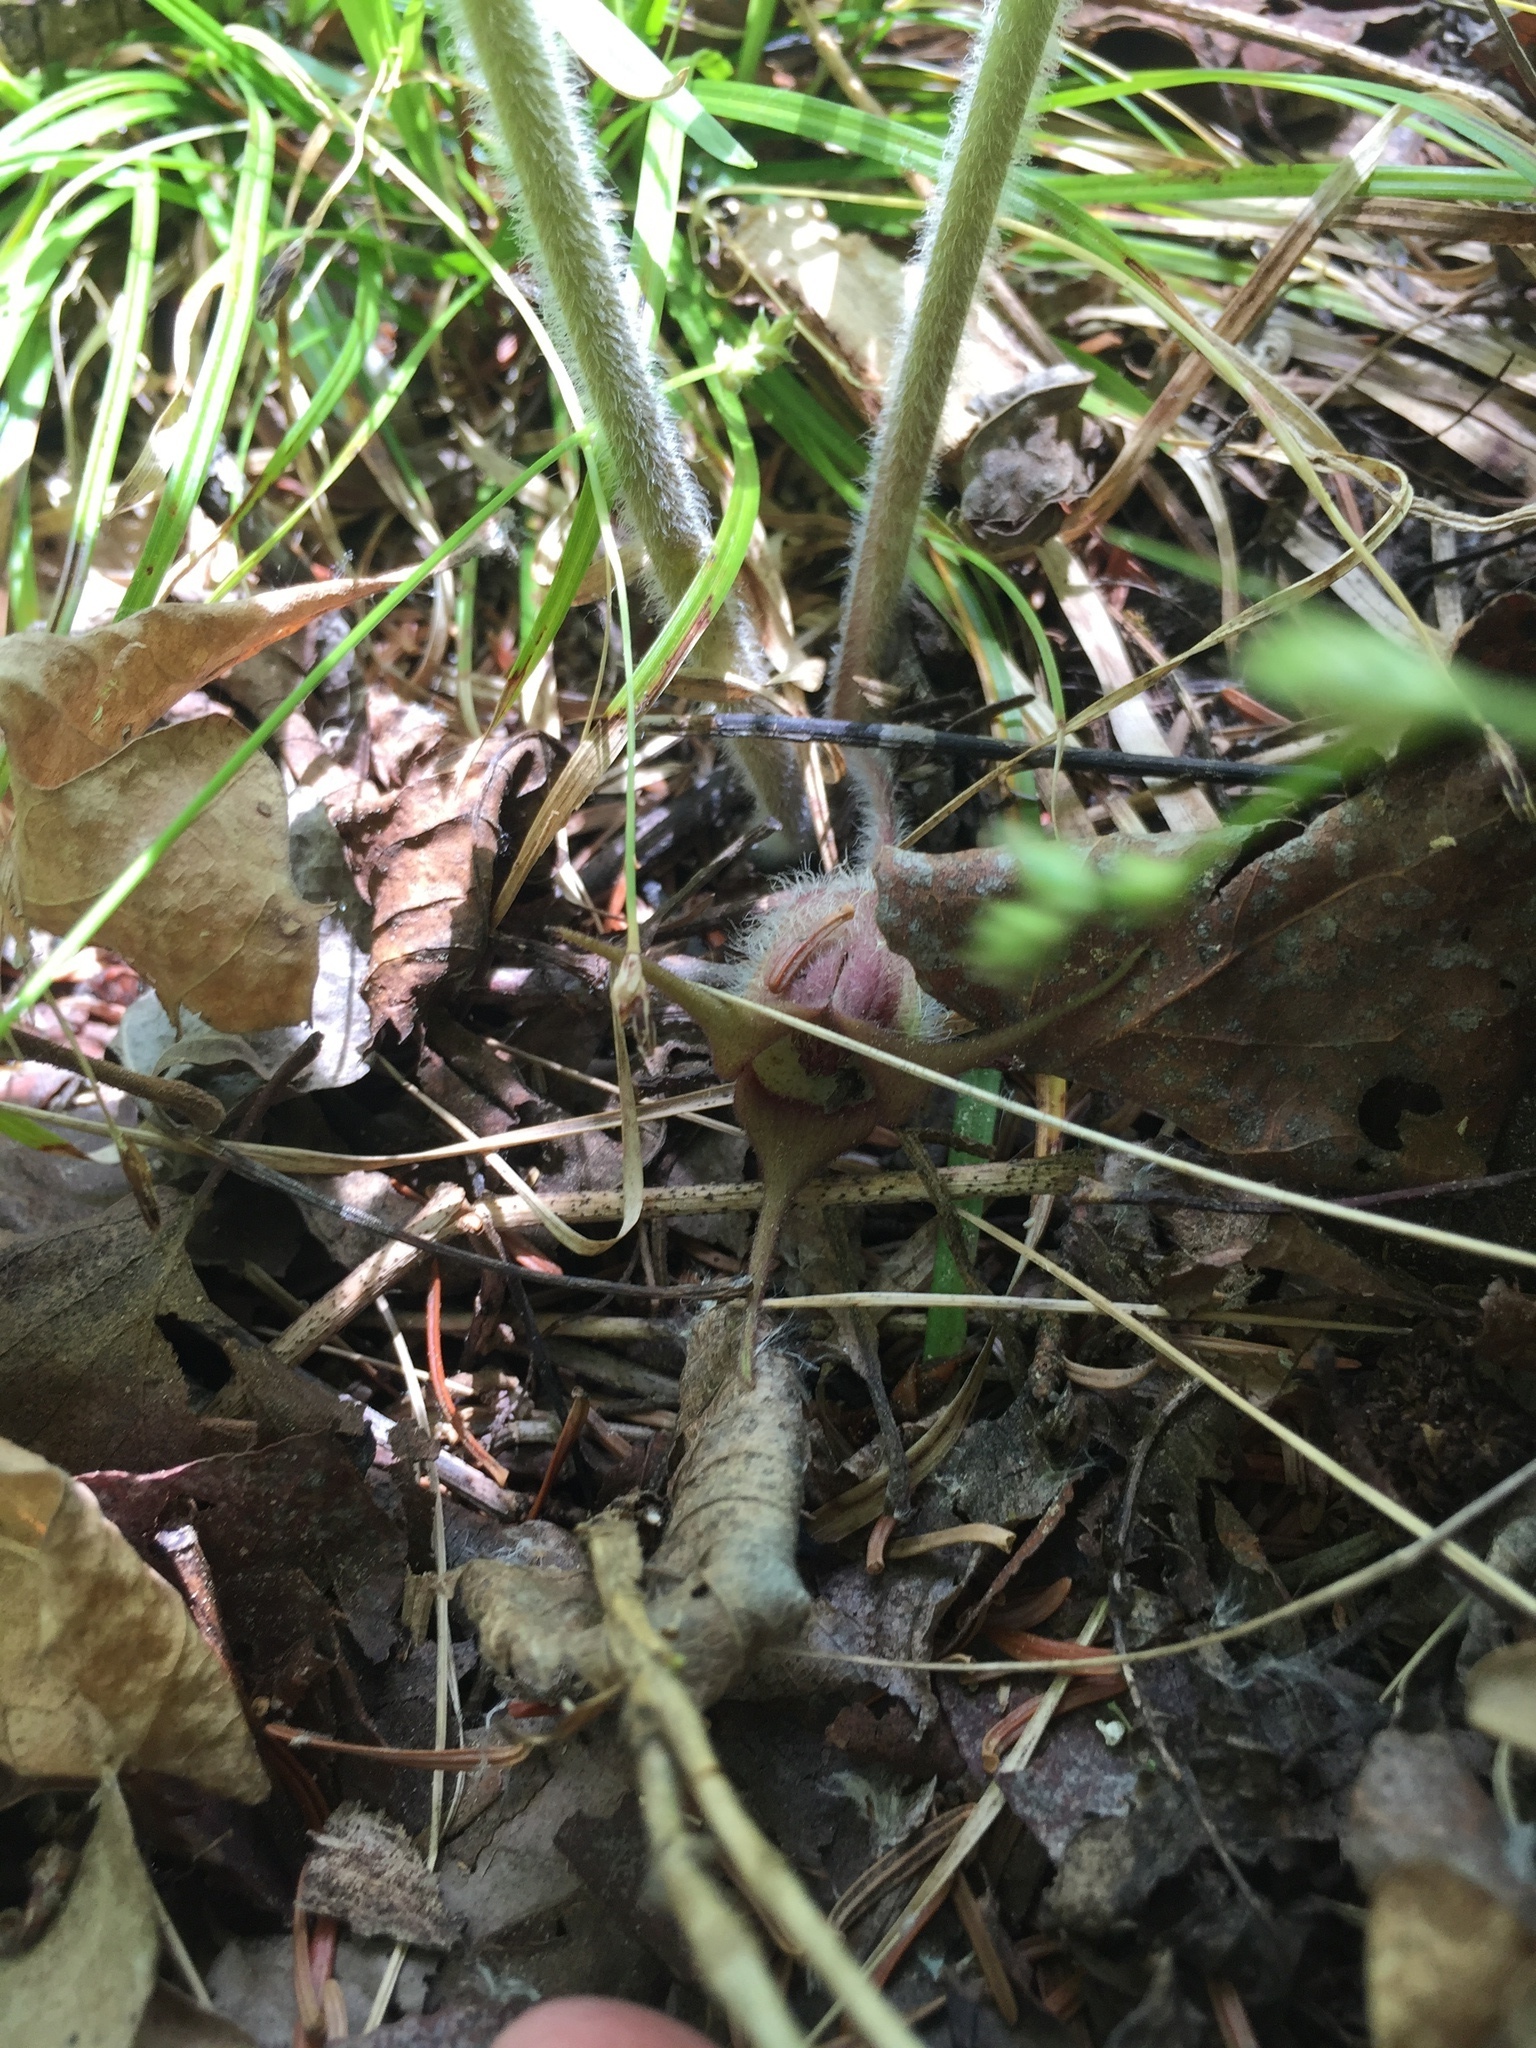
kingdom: Plantae
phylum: Tracheophyta
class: Magnoliopsida
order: Piperales
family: Aristolochiaceae
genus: Asarum
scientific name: Asarum canadense
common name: Wild ginger
